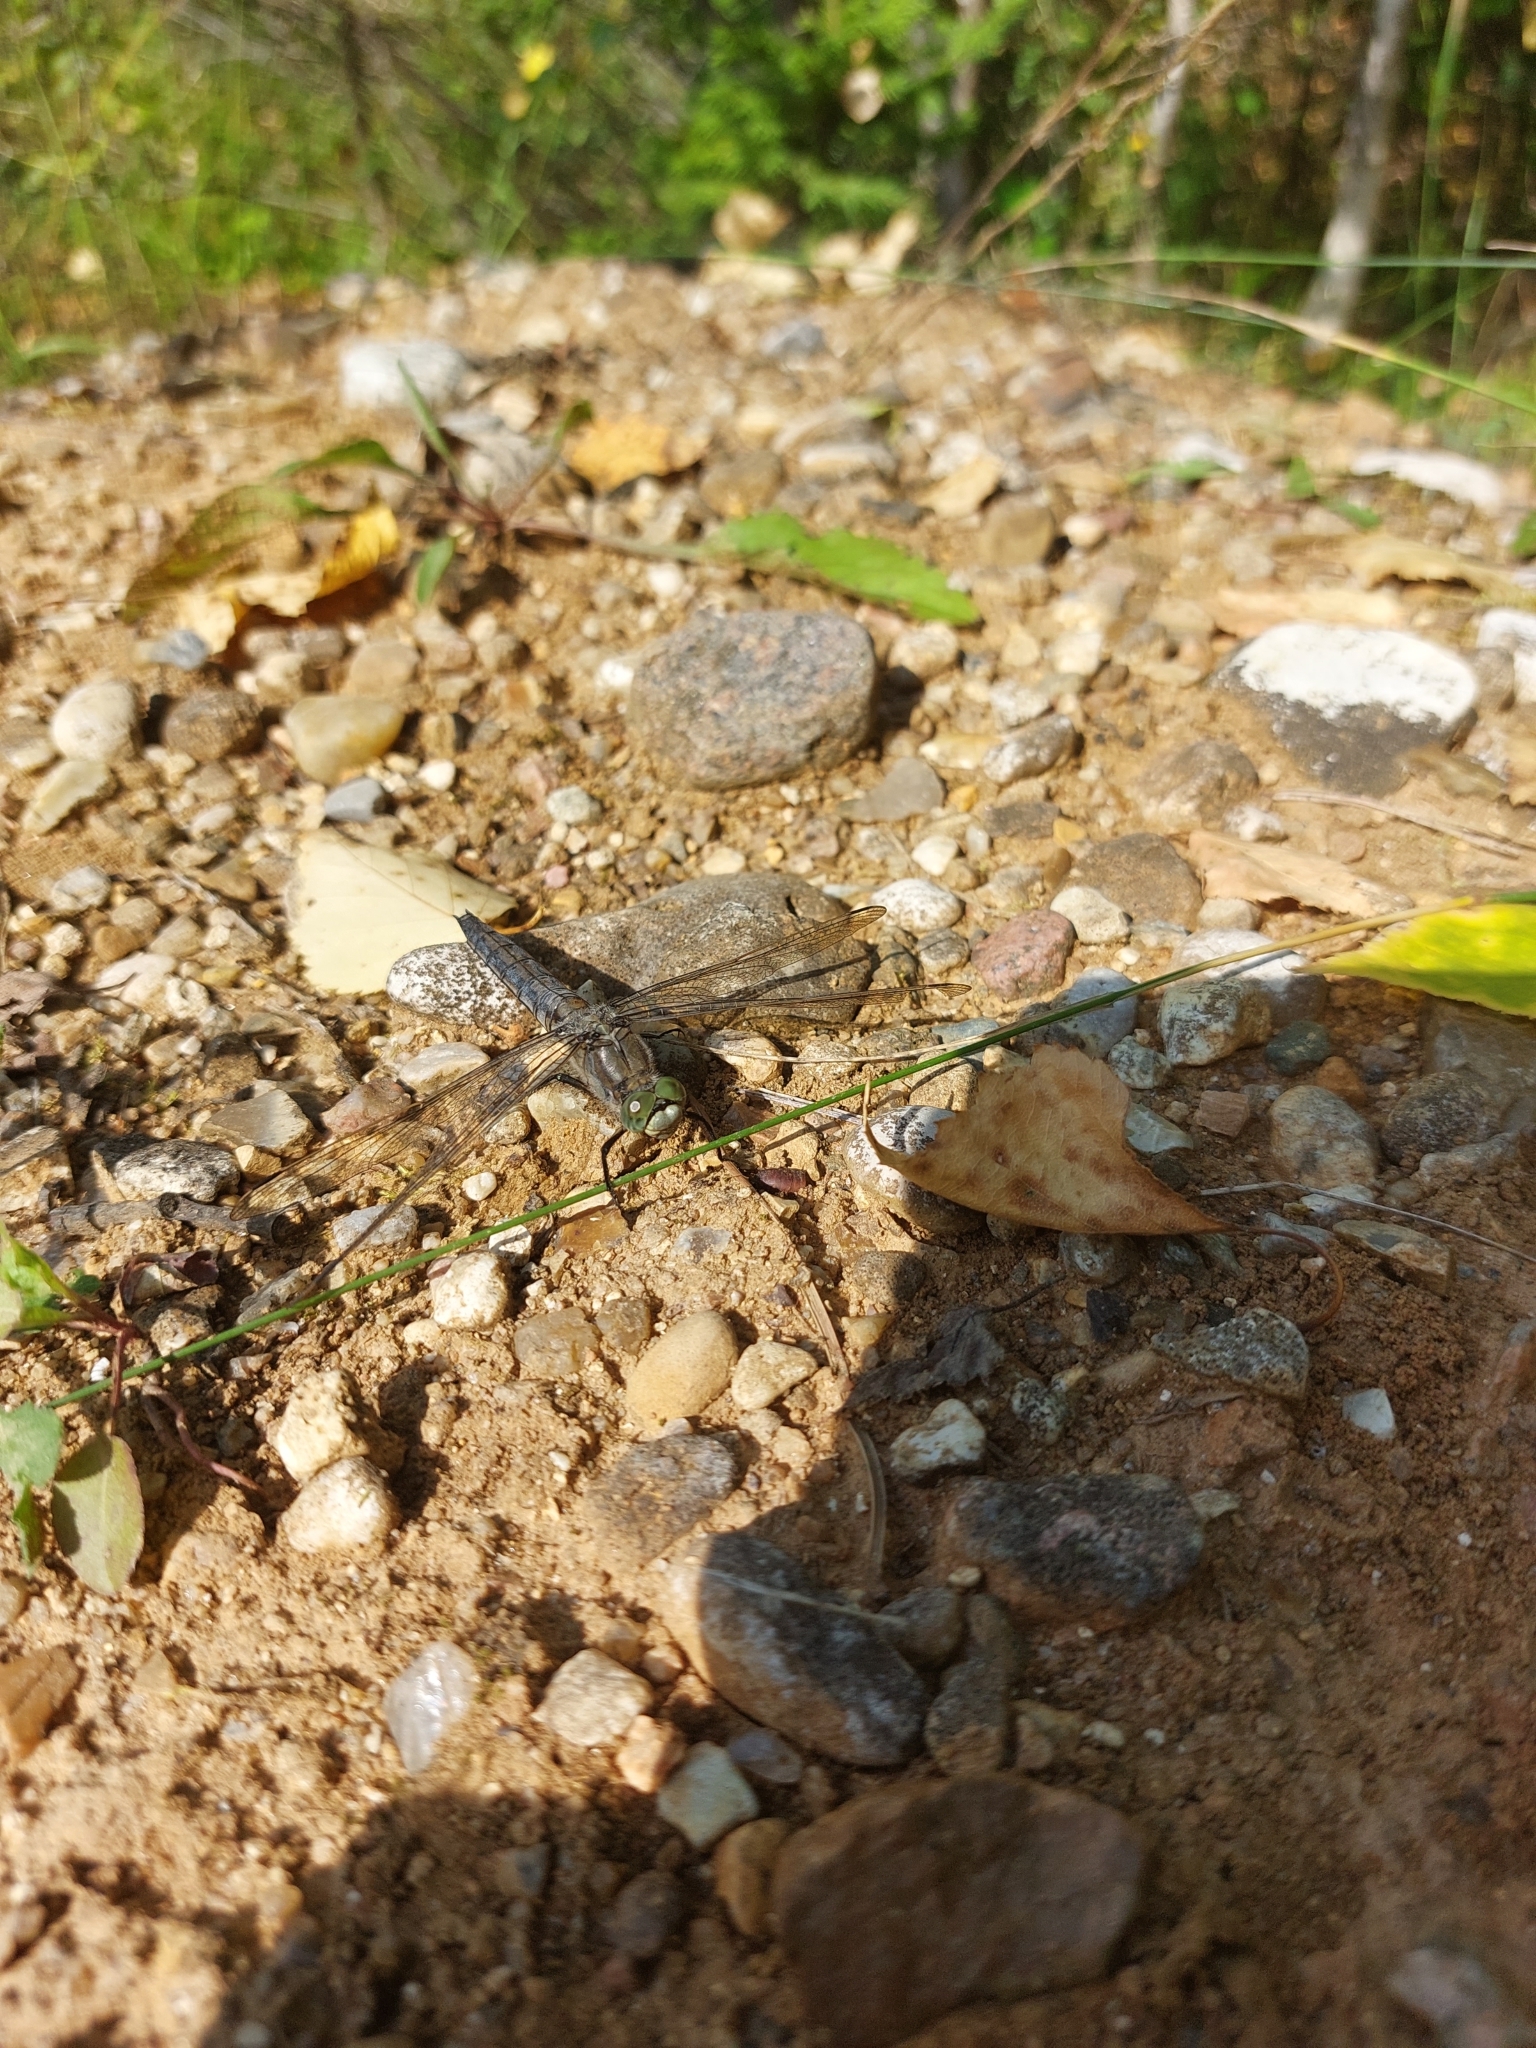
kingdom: Animalia
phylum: Arthropoda
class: Insecta
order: Odonata
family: Libellulidae
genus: Orthetrum
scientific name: Orthetrum cancellatum
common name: Black-tailed skimmer
